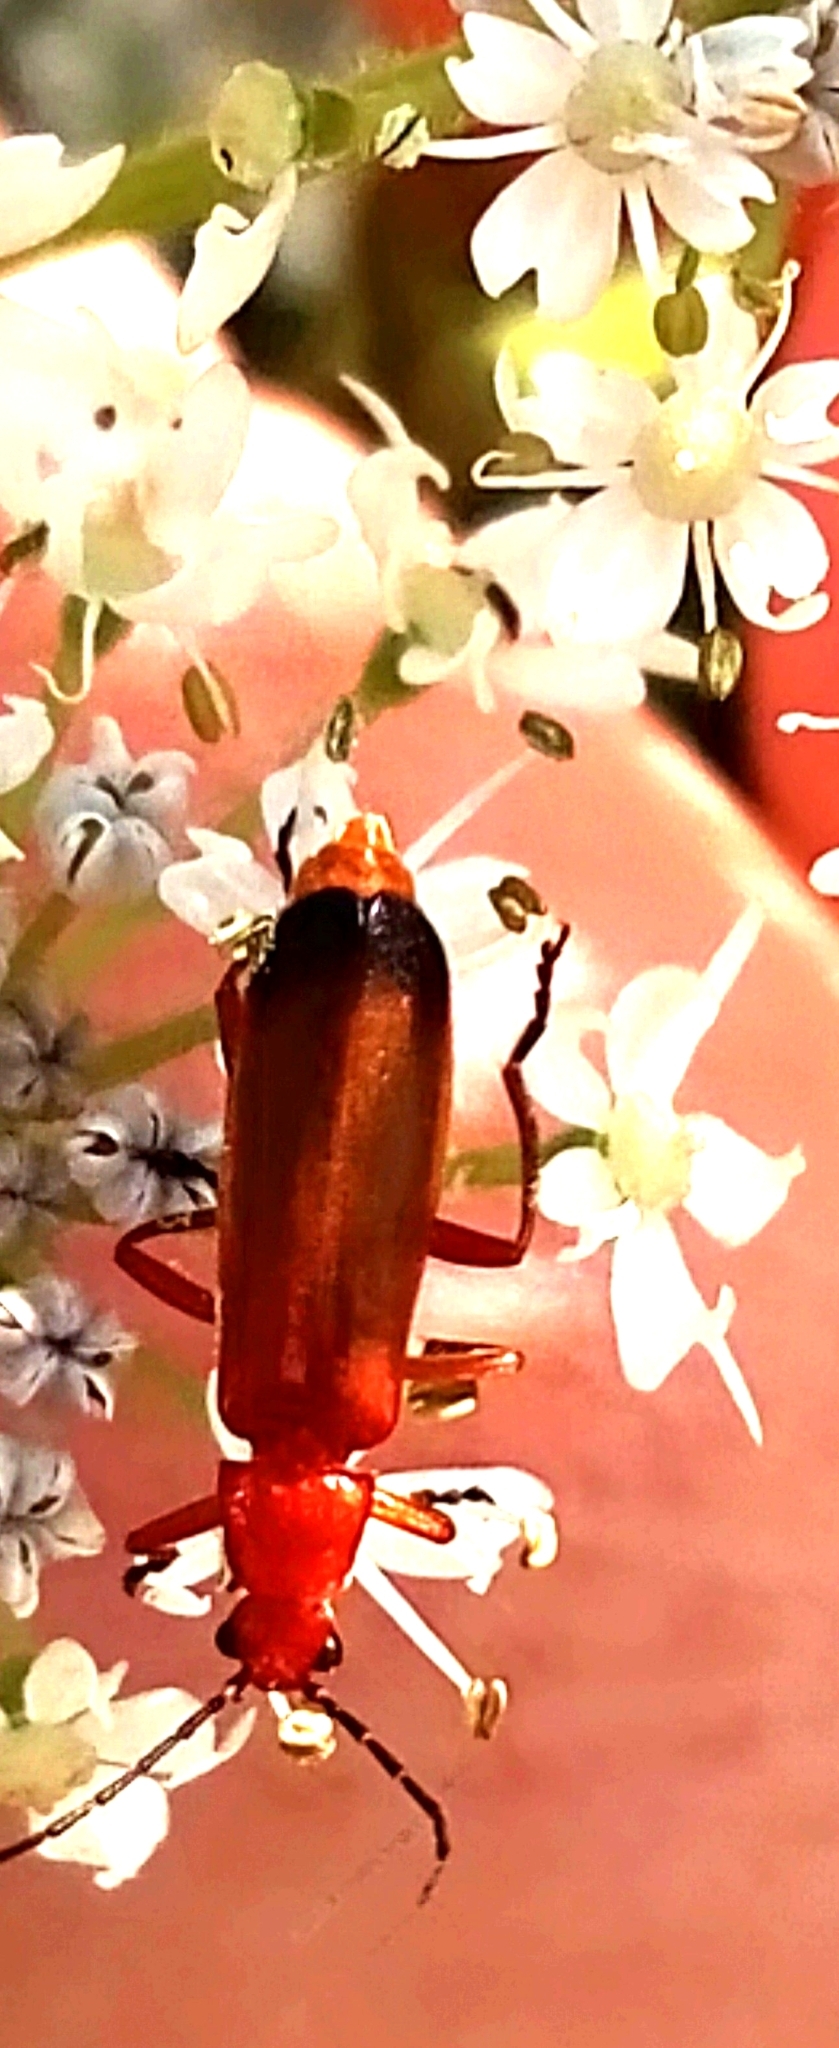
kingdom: Animalia
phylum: Arthropoda
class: Insecta
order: Coleoptera
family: Cantharidae
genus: Rhagonycha
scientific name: Rhagonycha fulva
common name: Common red soldier beetle
